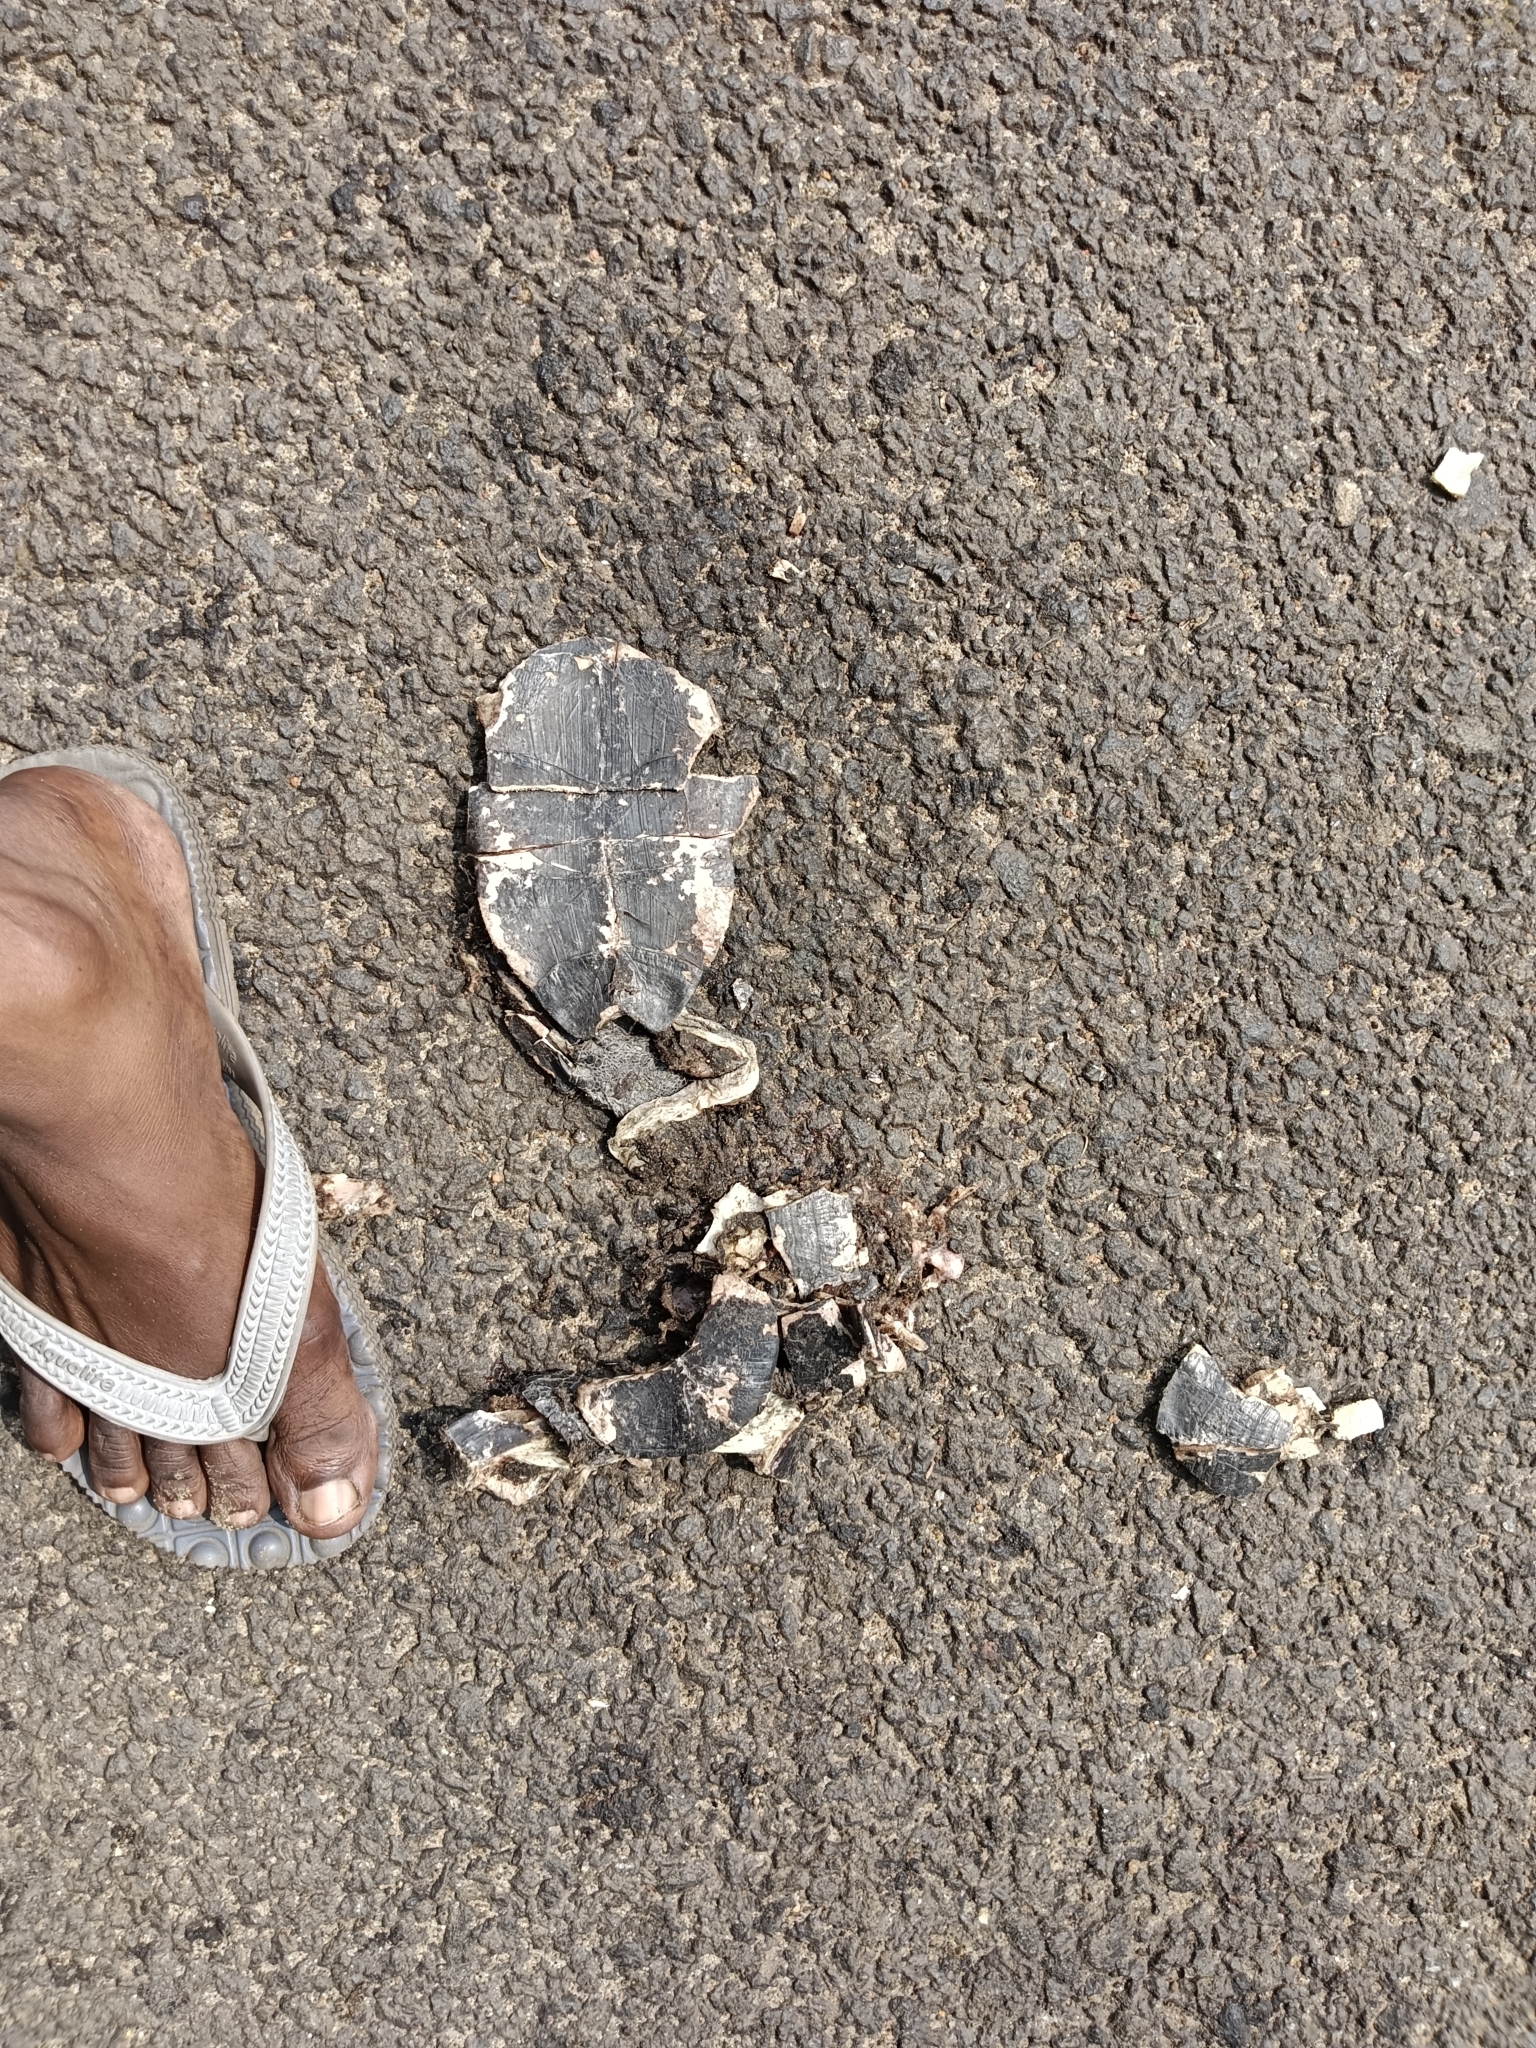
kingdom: Animalia
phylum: Chordata
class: Testudines
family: Geoemydidae
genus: Melanochelys
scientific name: Melanochelys trijuga
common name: Indian black turtle
